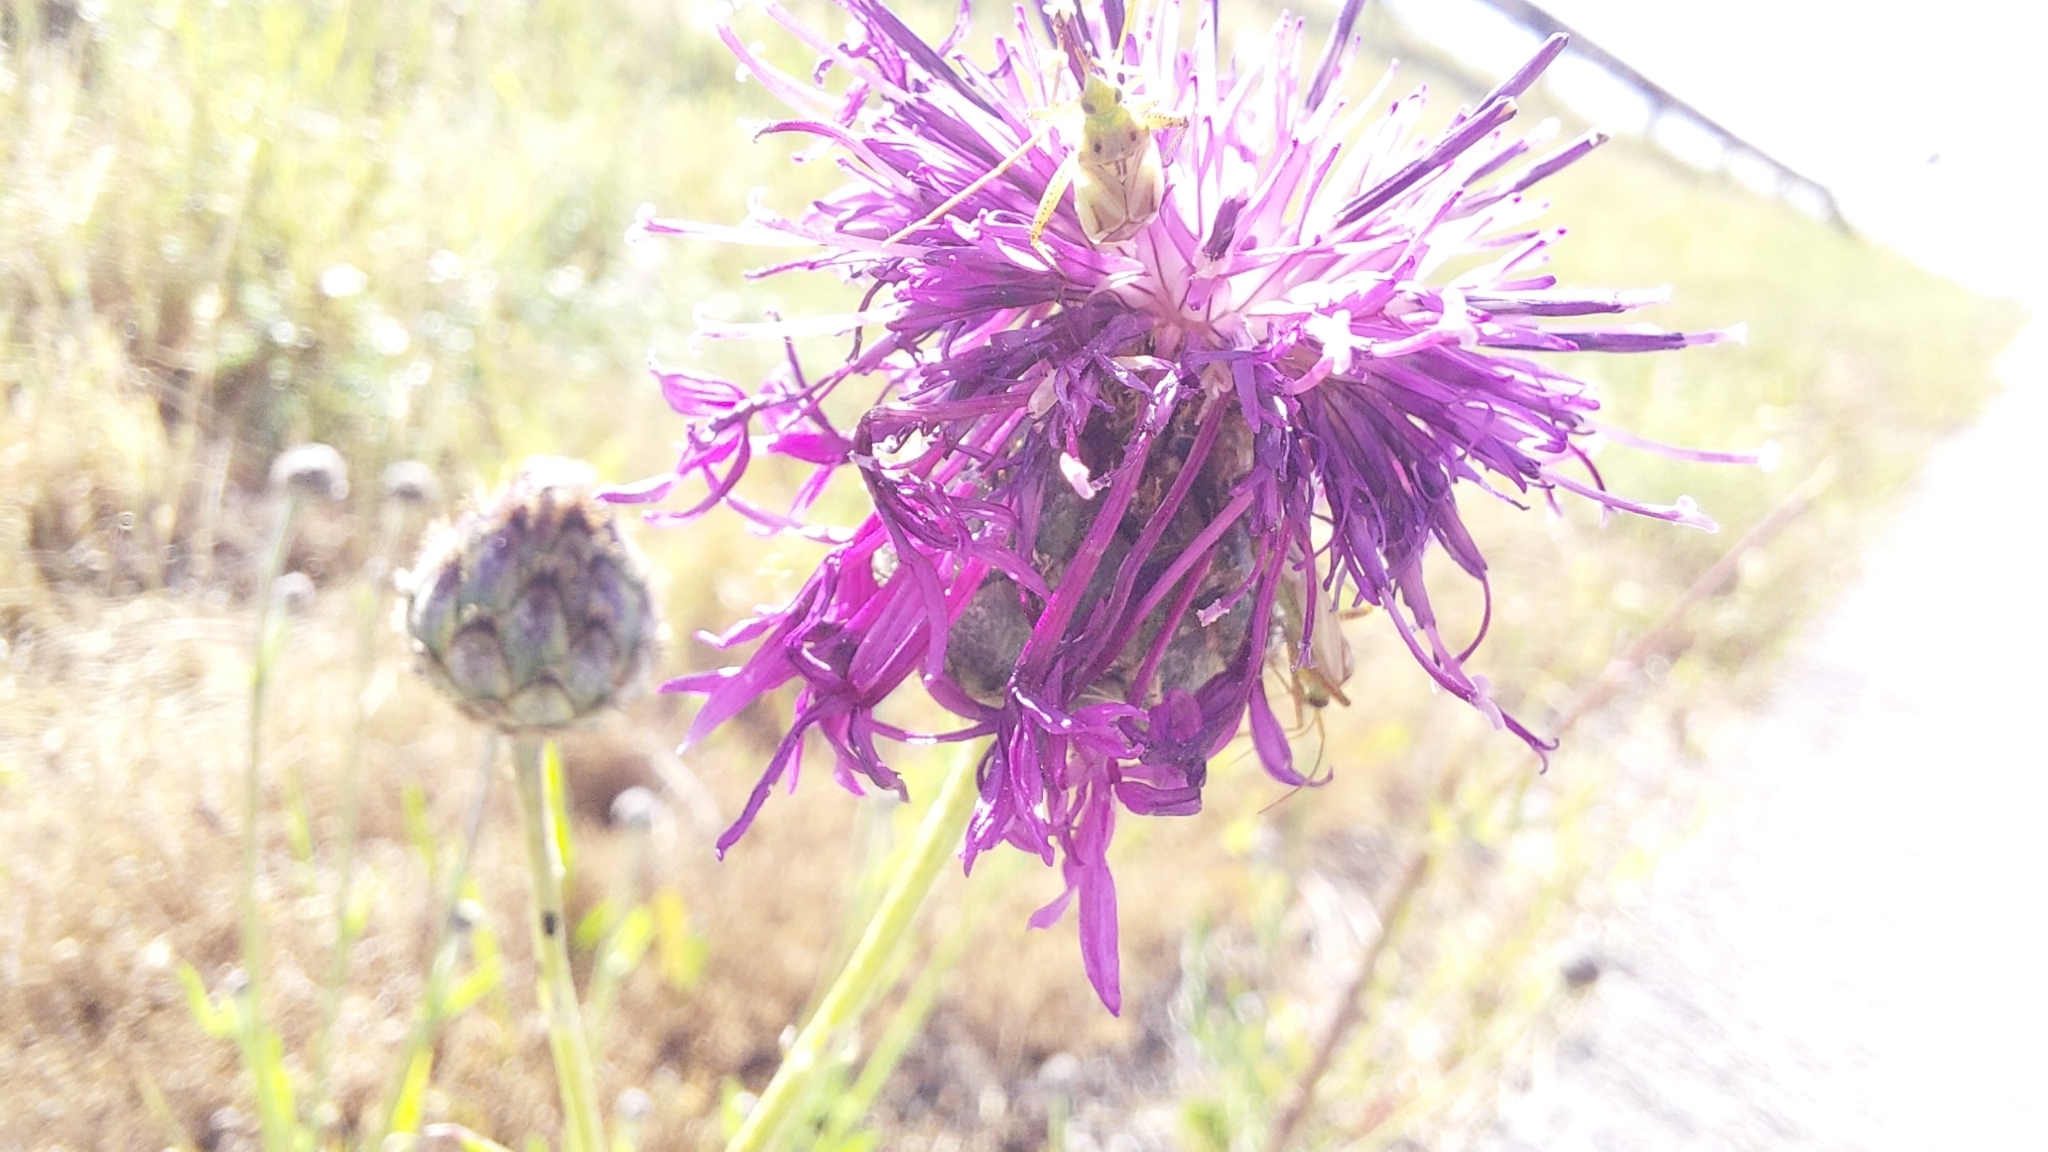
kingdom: Animalia
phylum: Arthropoda
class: Insecta
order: Hemiptera
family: Miridae
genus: Adelphocoris
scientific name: Adelphocoris lineolatus
